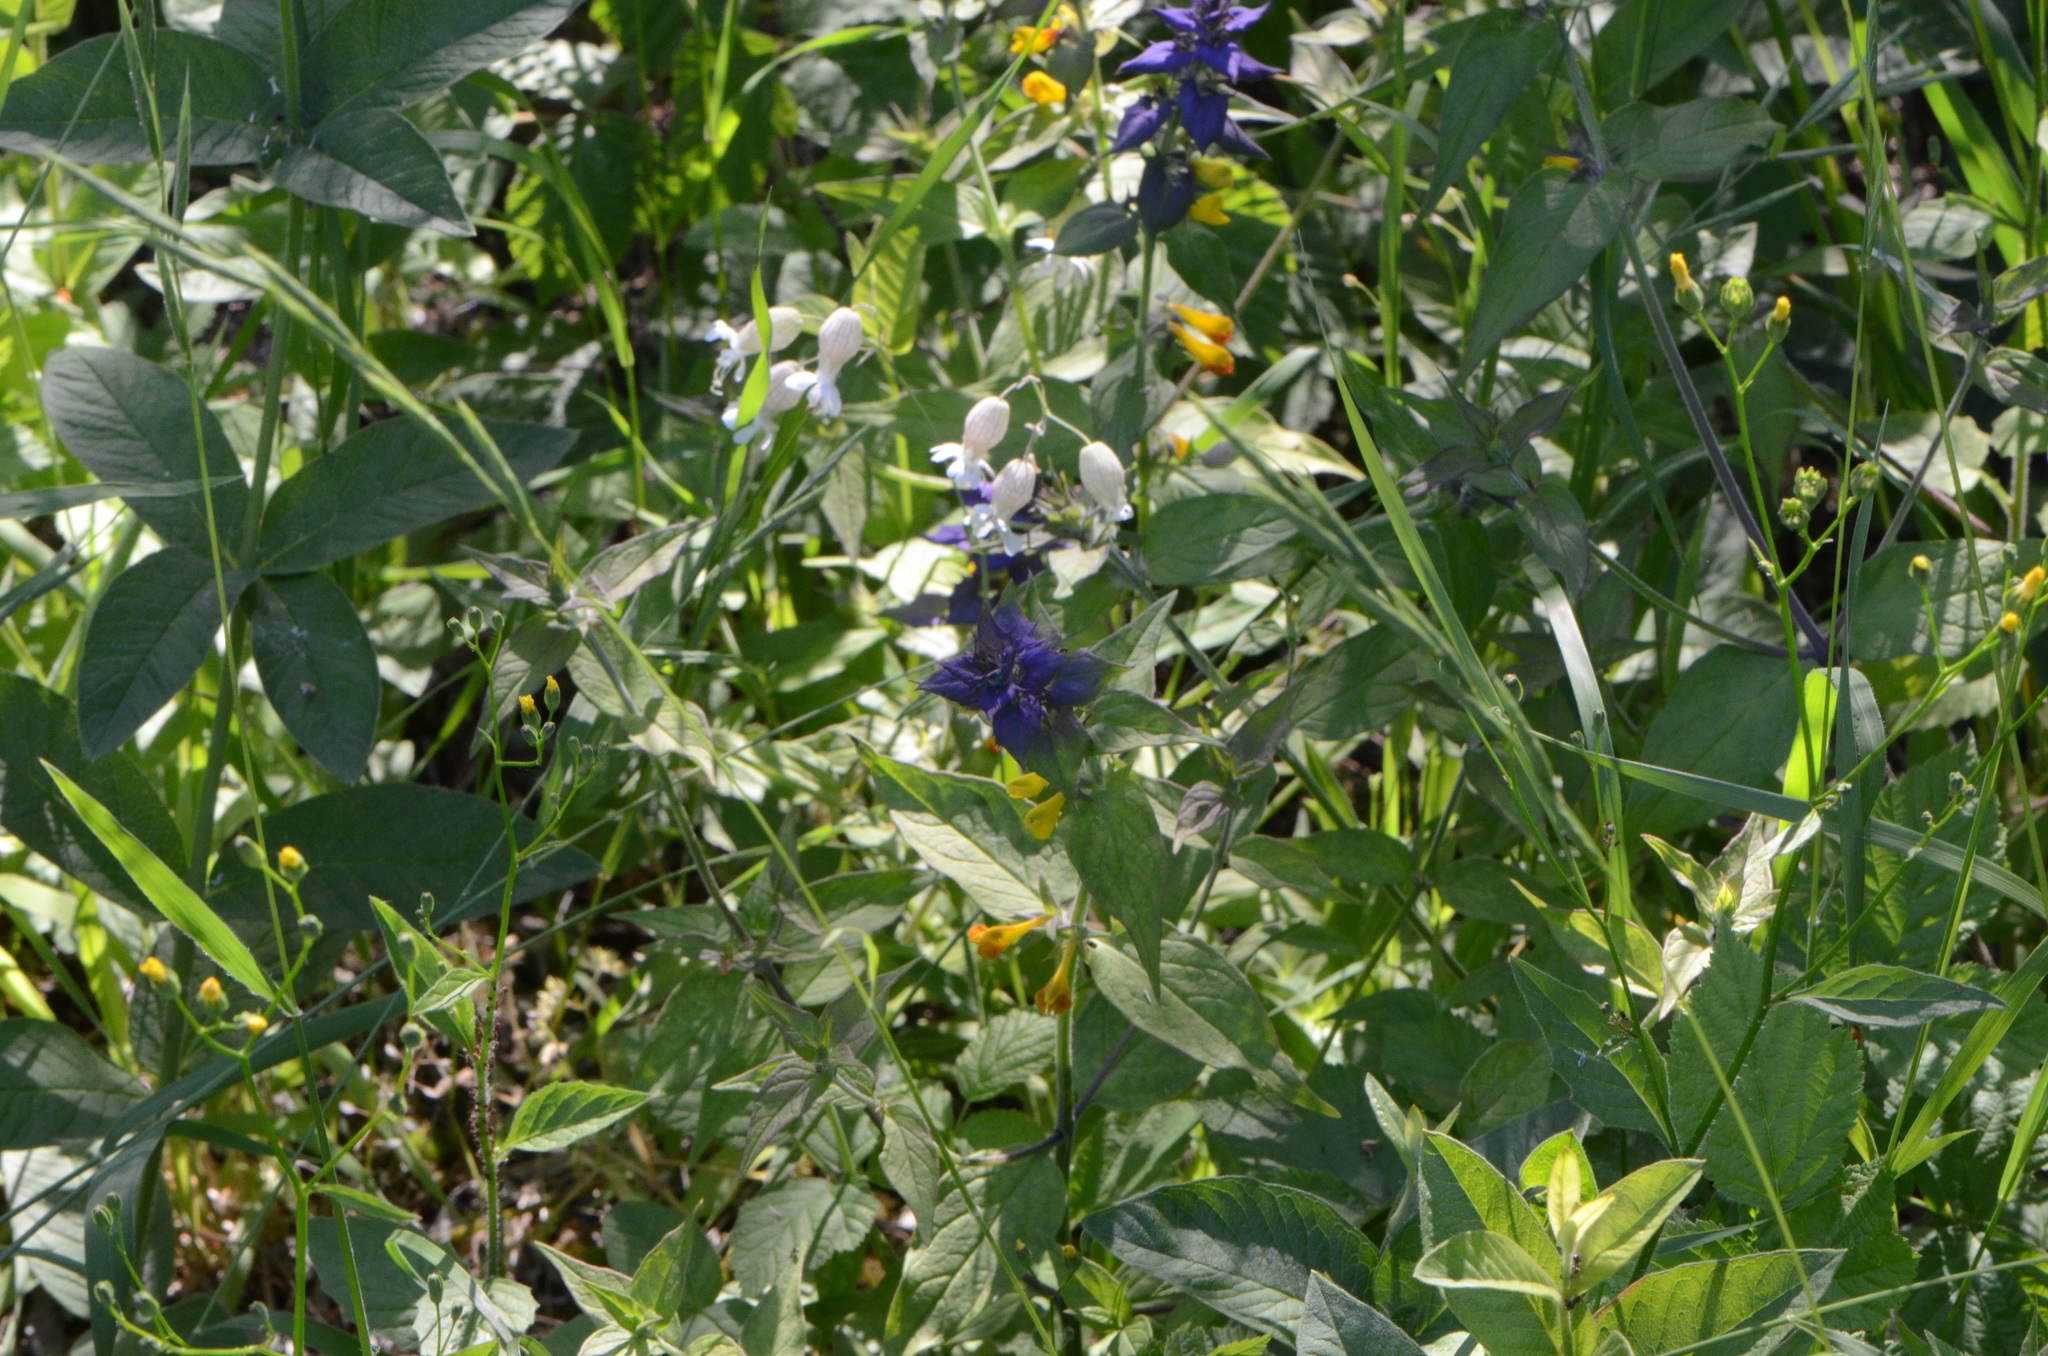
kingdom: Plantae
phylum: Tracheophyta
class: Magnoliopsida
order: Lamiales
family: Orobanchaceae
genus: Melampyrum
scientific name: Melampyrum nemorosum
